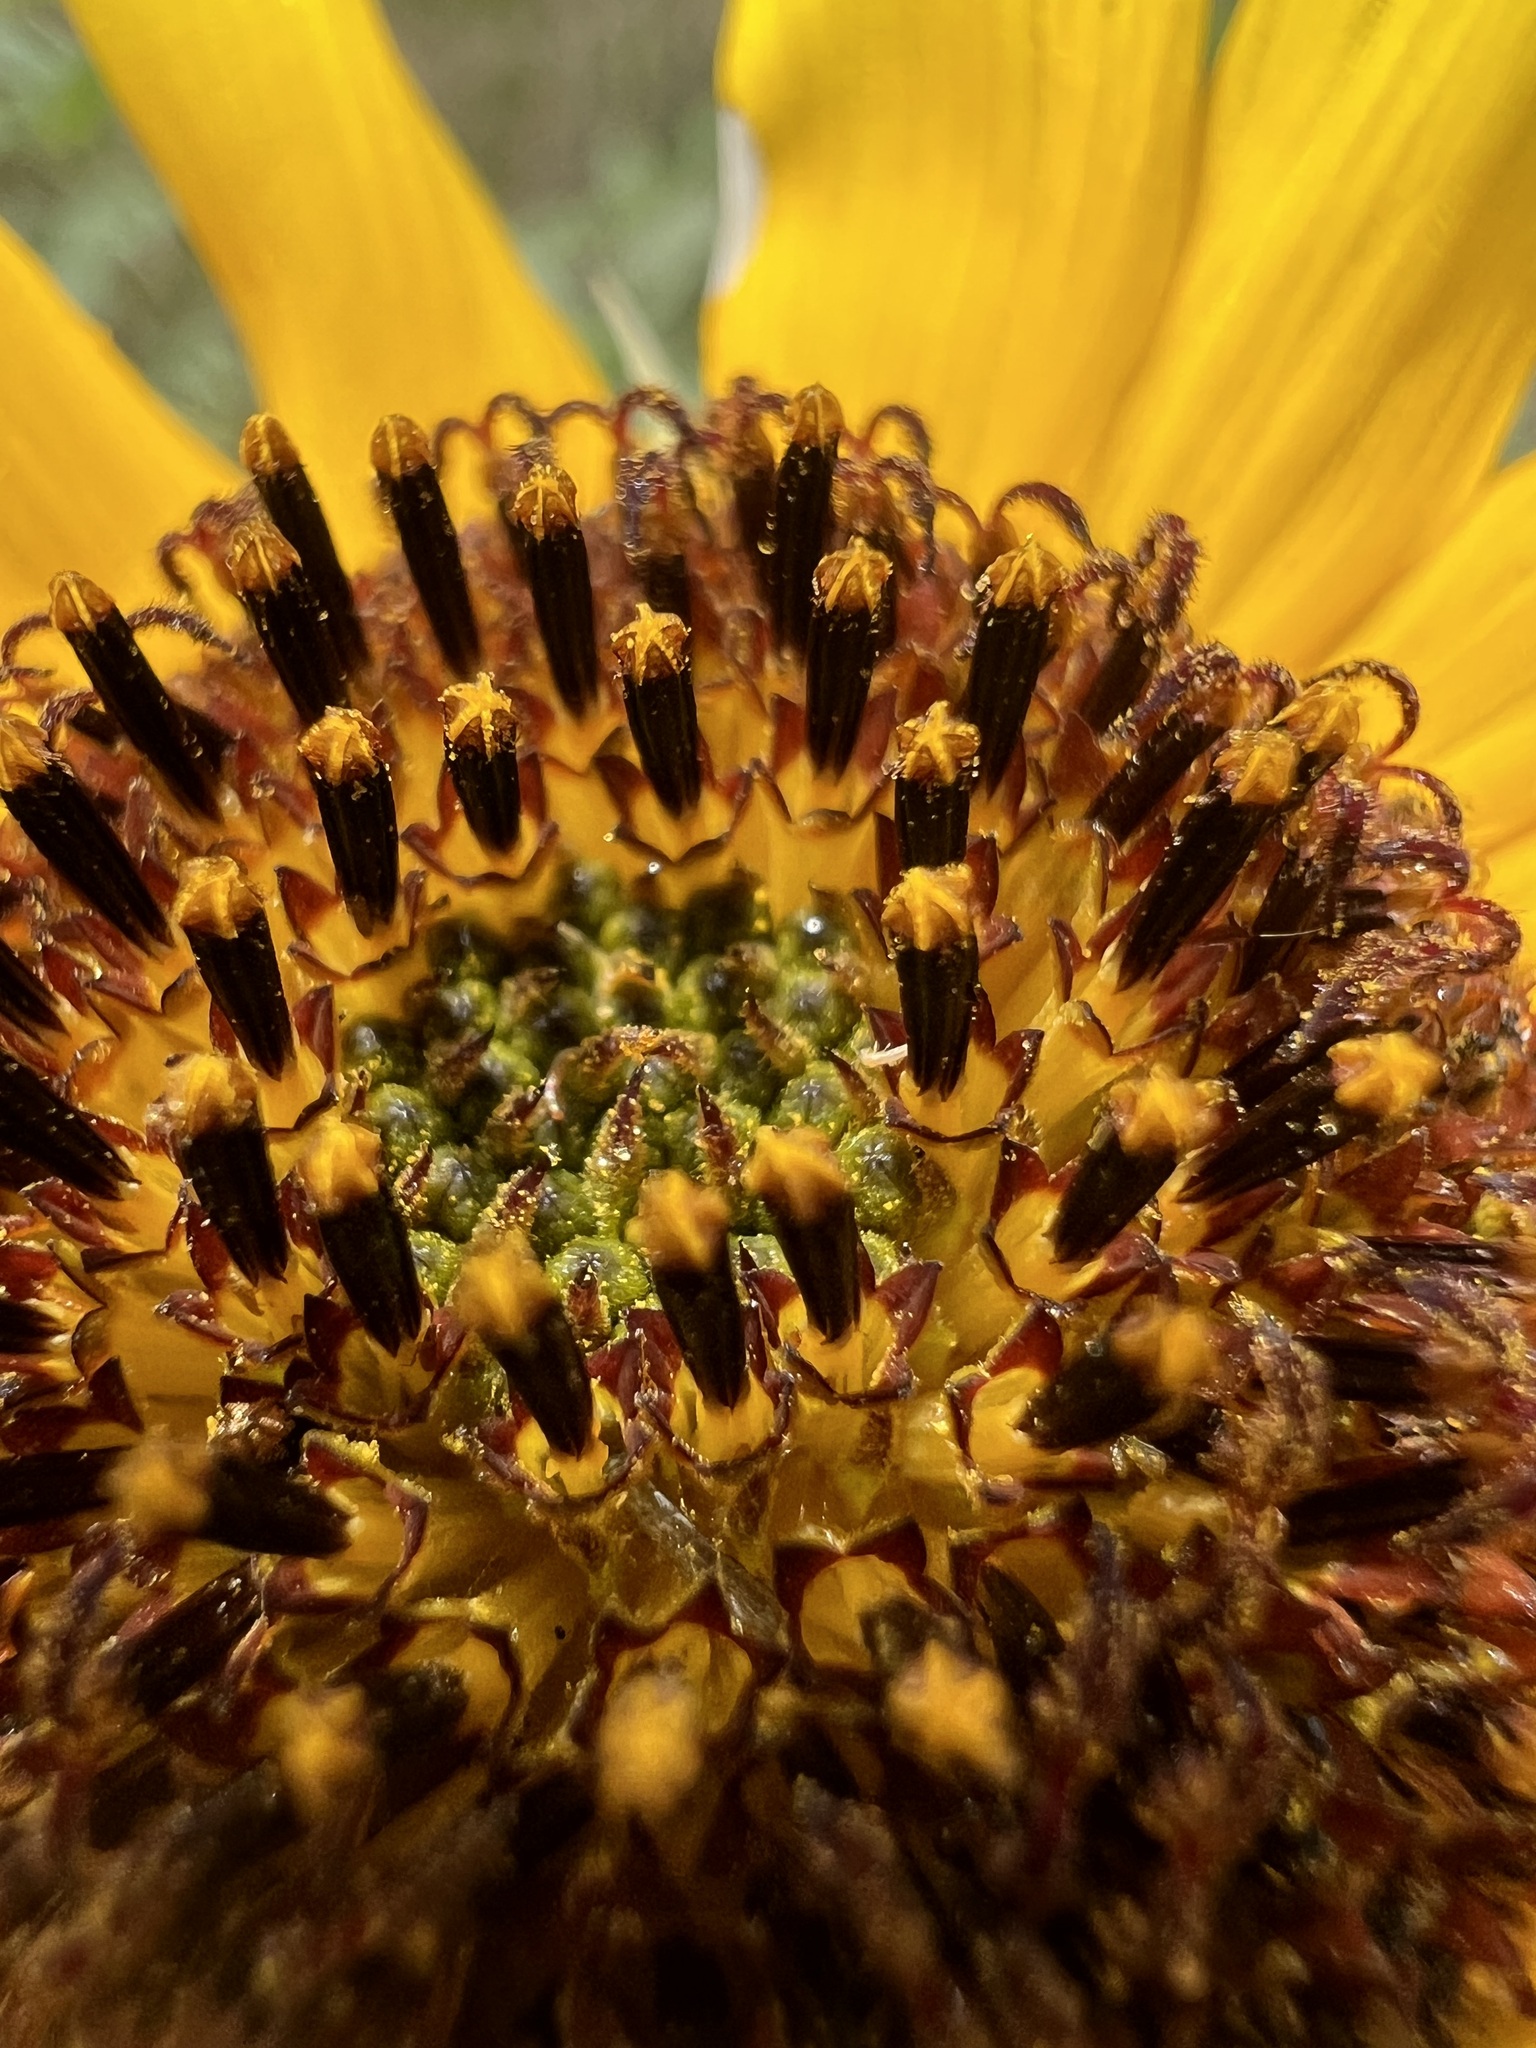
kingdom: Plantae
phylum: Tracheophyta
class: Magnoliopsida
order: Asterales
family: Asteraceae
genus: Helianthus
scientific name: Helianthus annuus
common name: Sunflower
